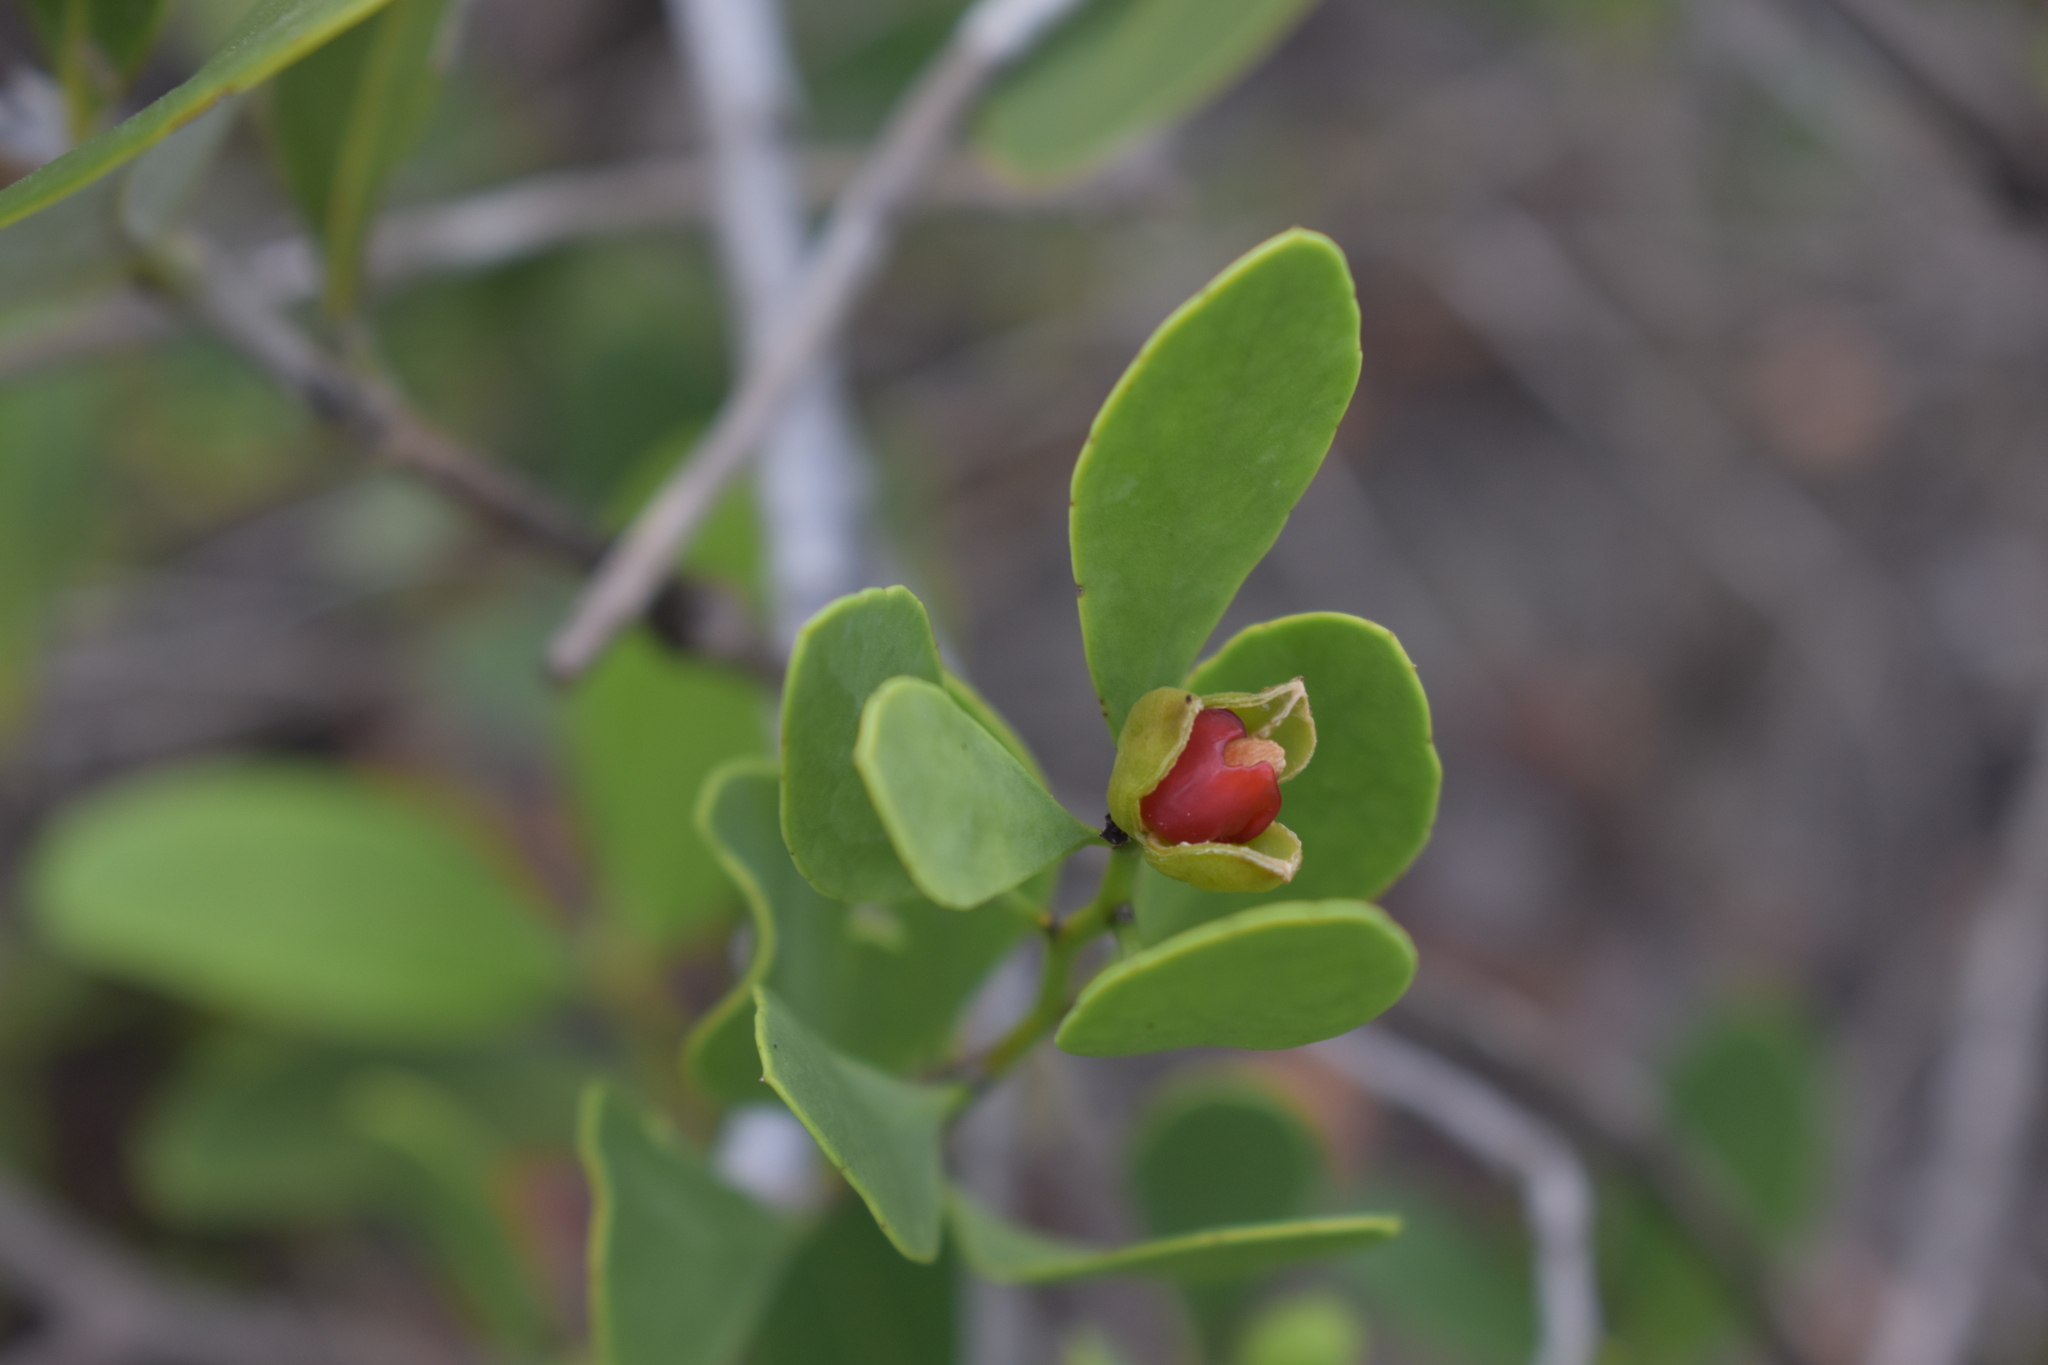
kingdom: Plantae
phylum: Tracheophyta
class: Magnoliopsida
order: Celastrales
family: Celastraceae
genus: Tricerma
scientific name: Tricerma phyllanthoides
